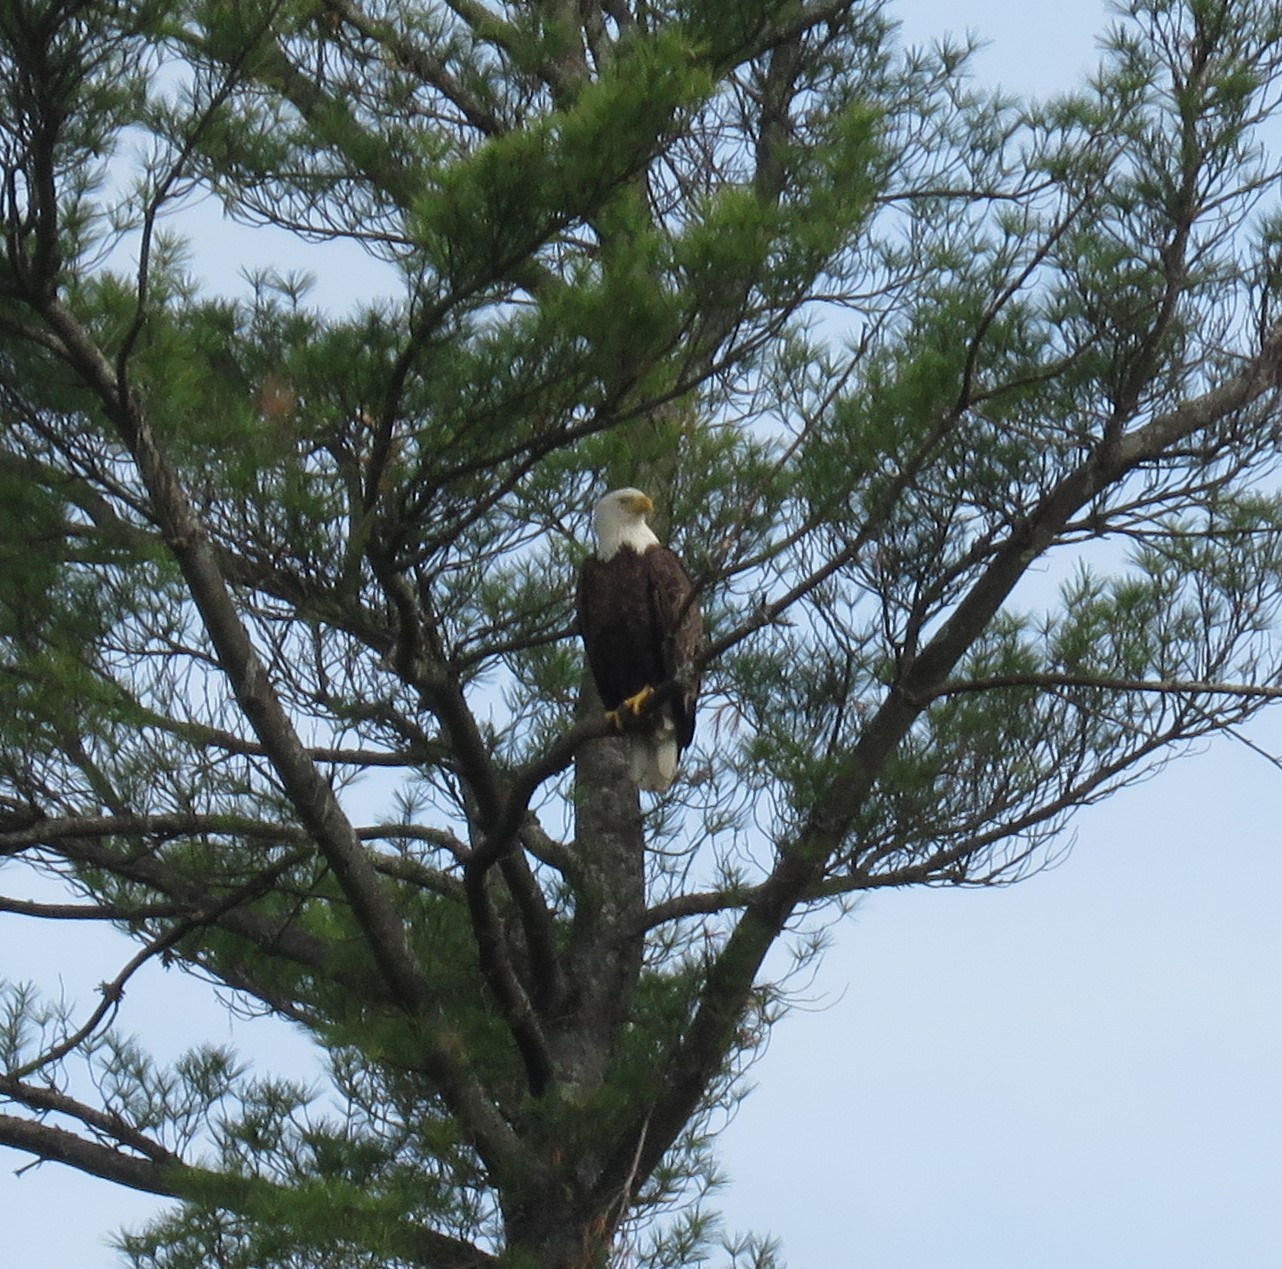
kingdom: Animalia
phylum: Chordata
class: Aves
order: Accipitriformes
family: Accipitridae
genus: Haliaeetus
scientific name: Haliaeetus leucocephalus
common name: Bald eagle
